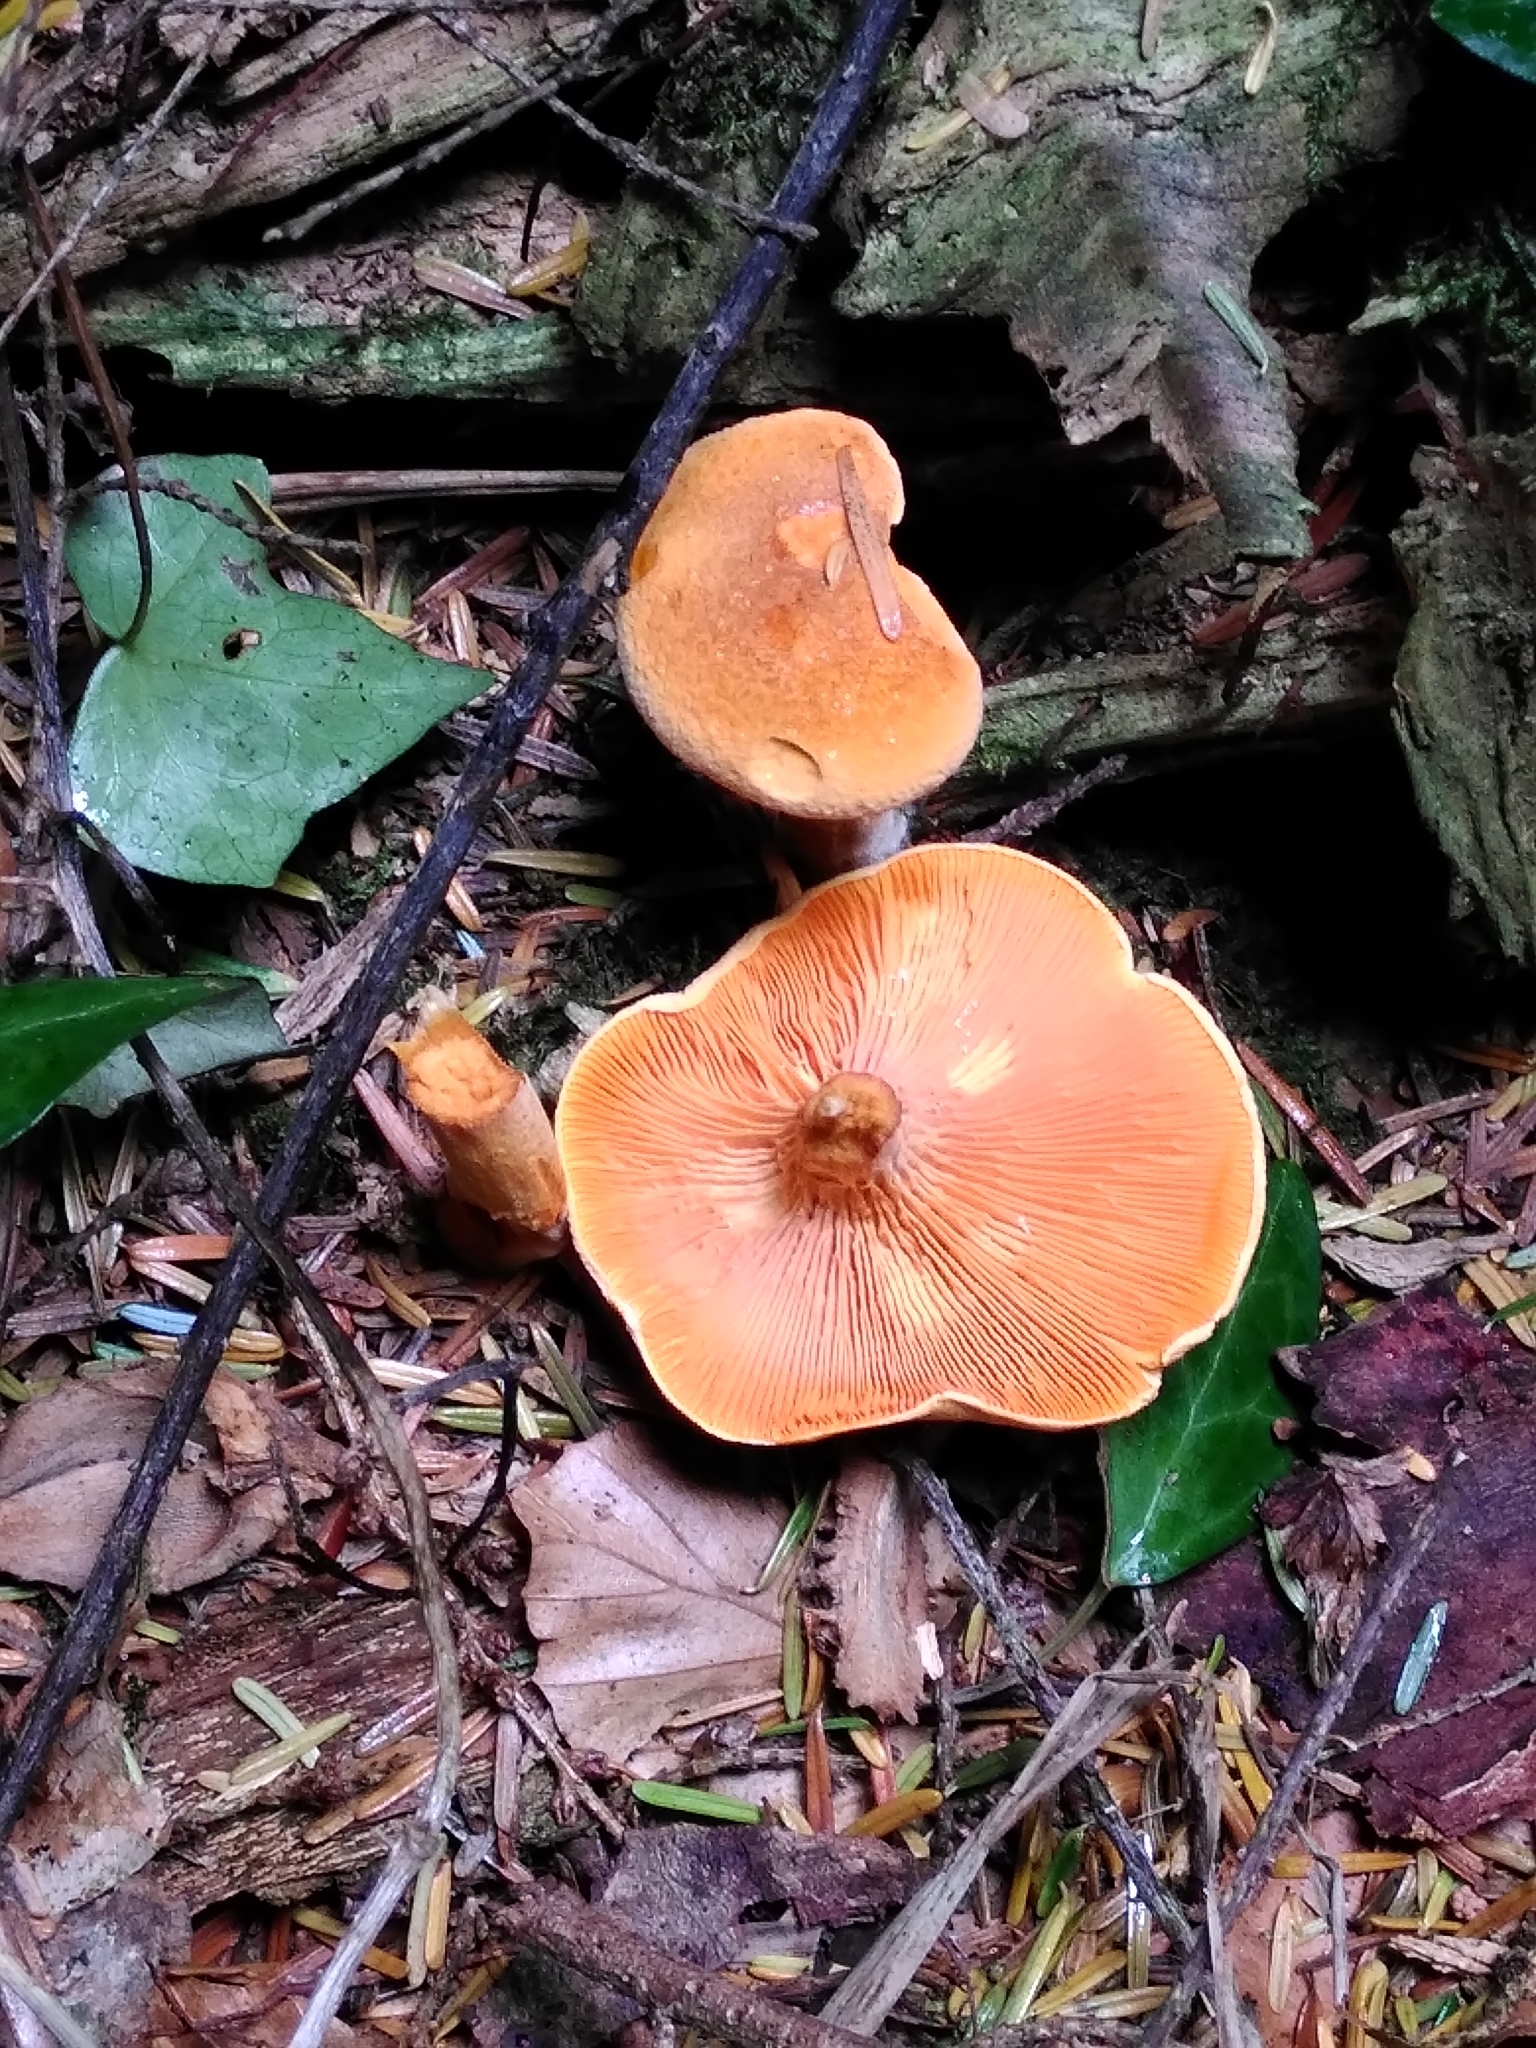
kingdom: Fungi
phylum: Basidiomycota
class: Agaricomycetes
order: Boletales
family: Hygrophoropsidaceae
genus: Hygrophoropsis
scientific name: Hygrophoropsis aurantiaca
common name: False chanterelle
